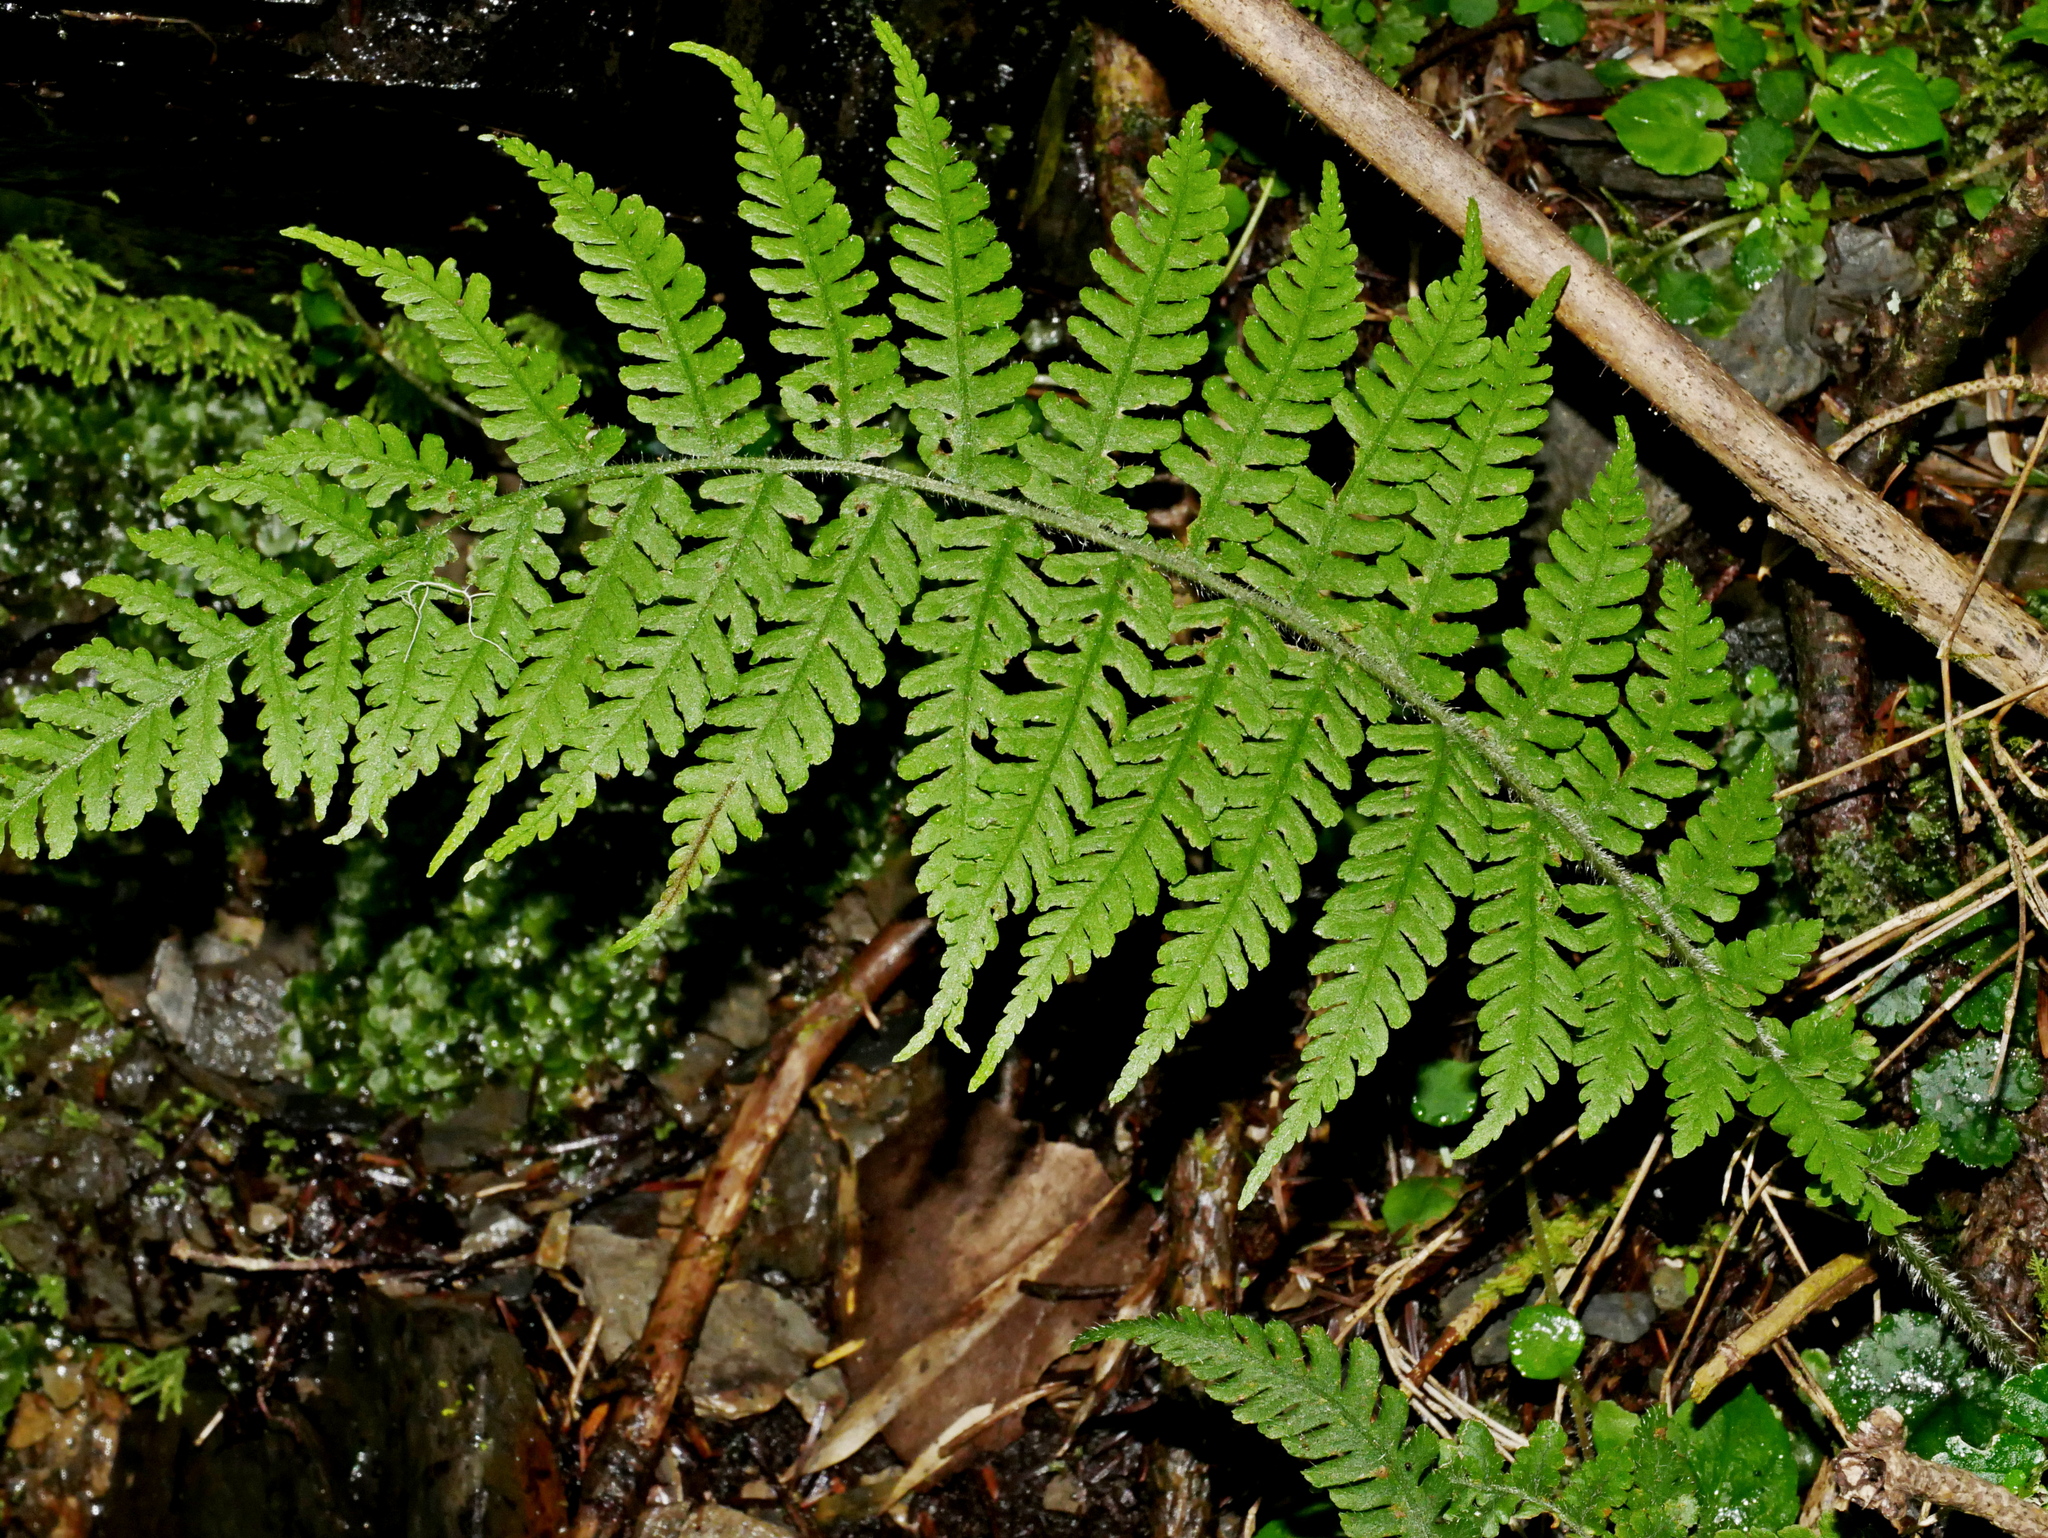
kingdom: Plantae
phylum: Tracheophyta
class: Polypodiopsida
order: Polypodiales
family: Athyriaceae
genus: Deparia
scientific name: Deparia jiulungensis
